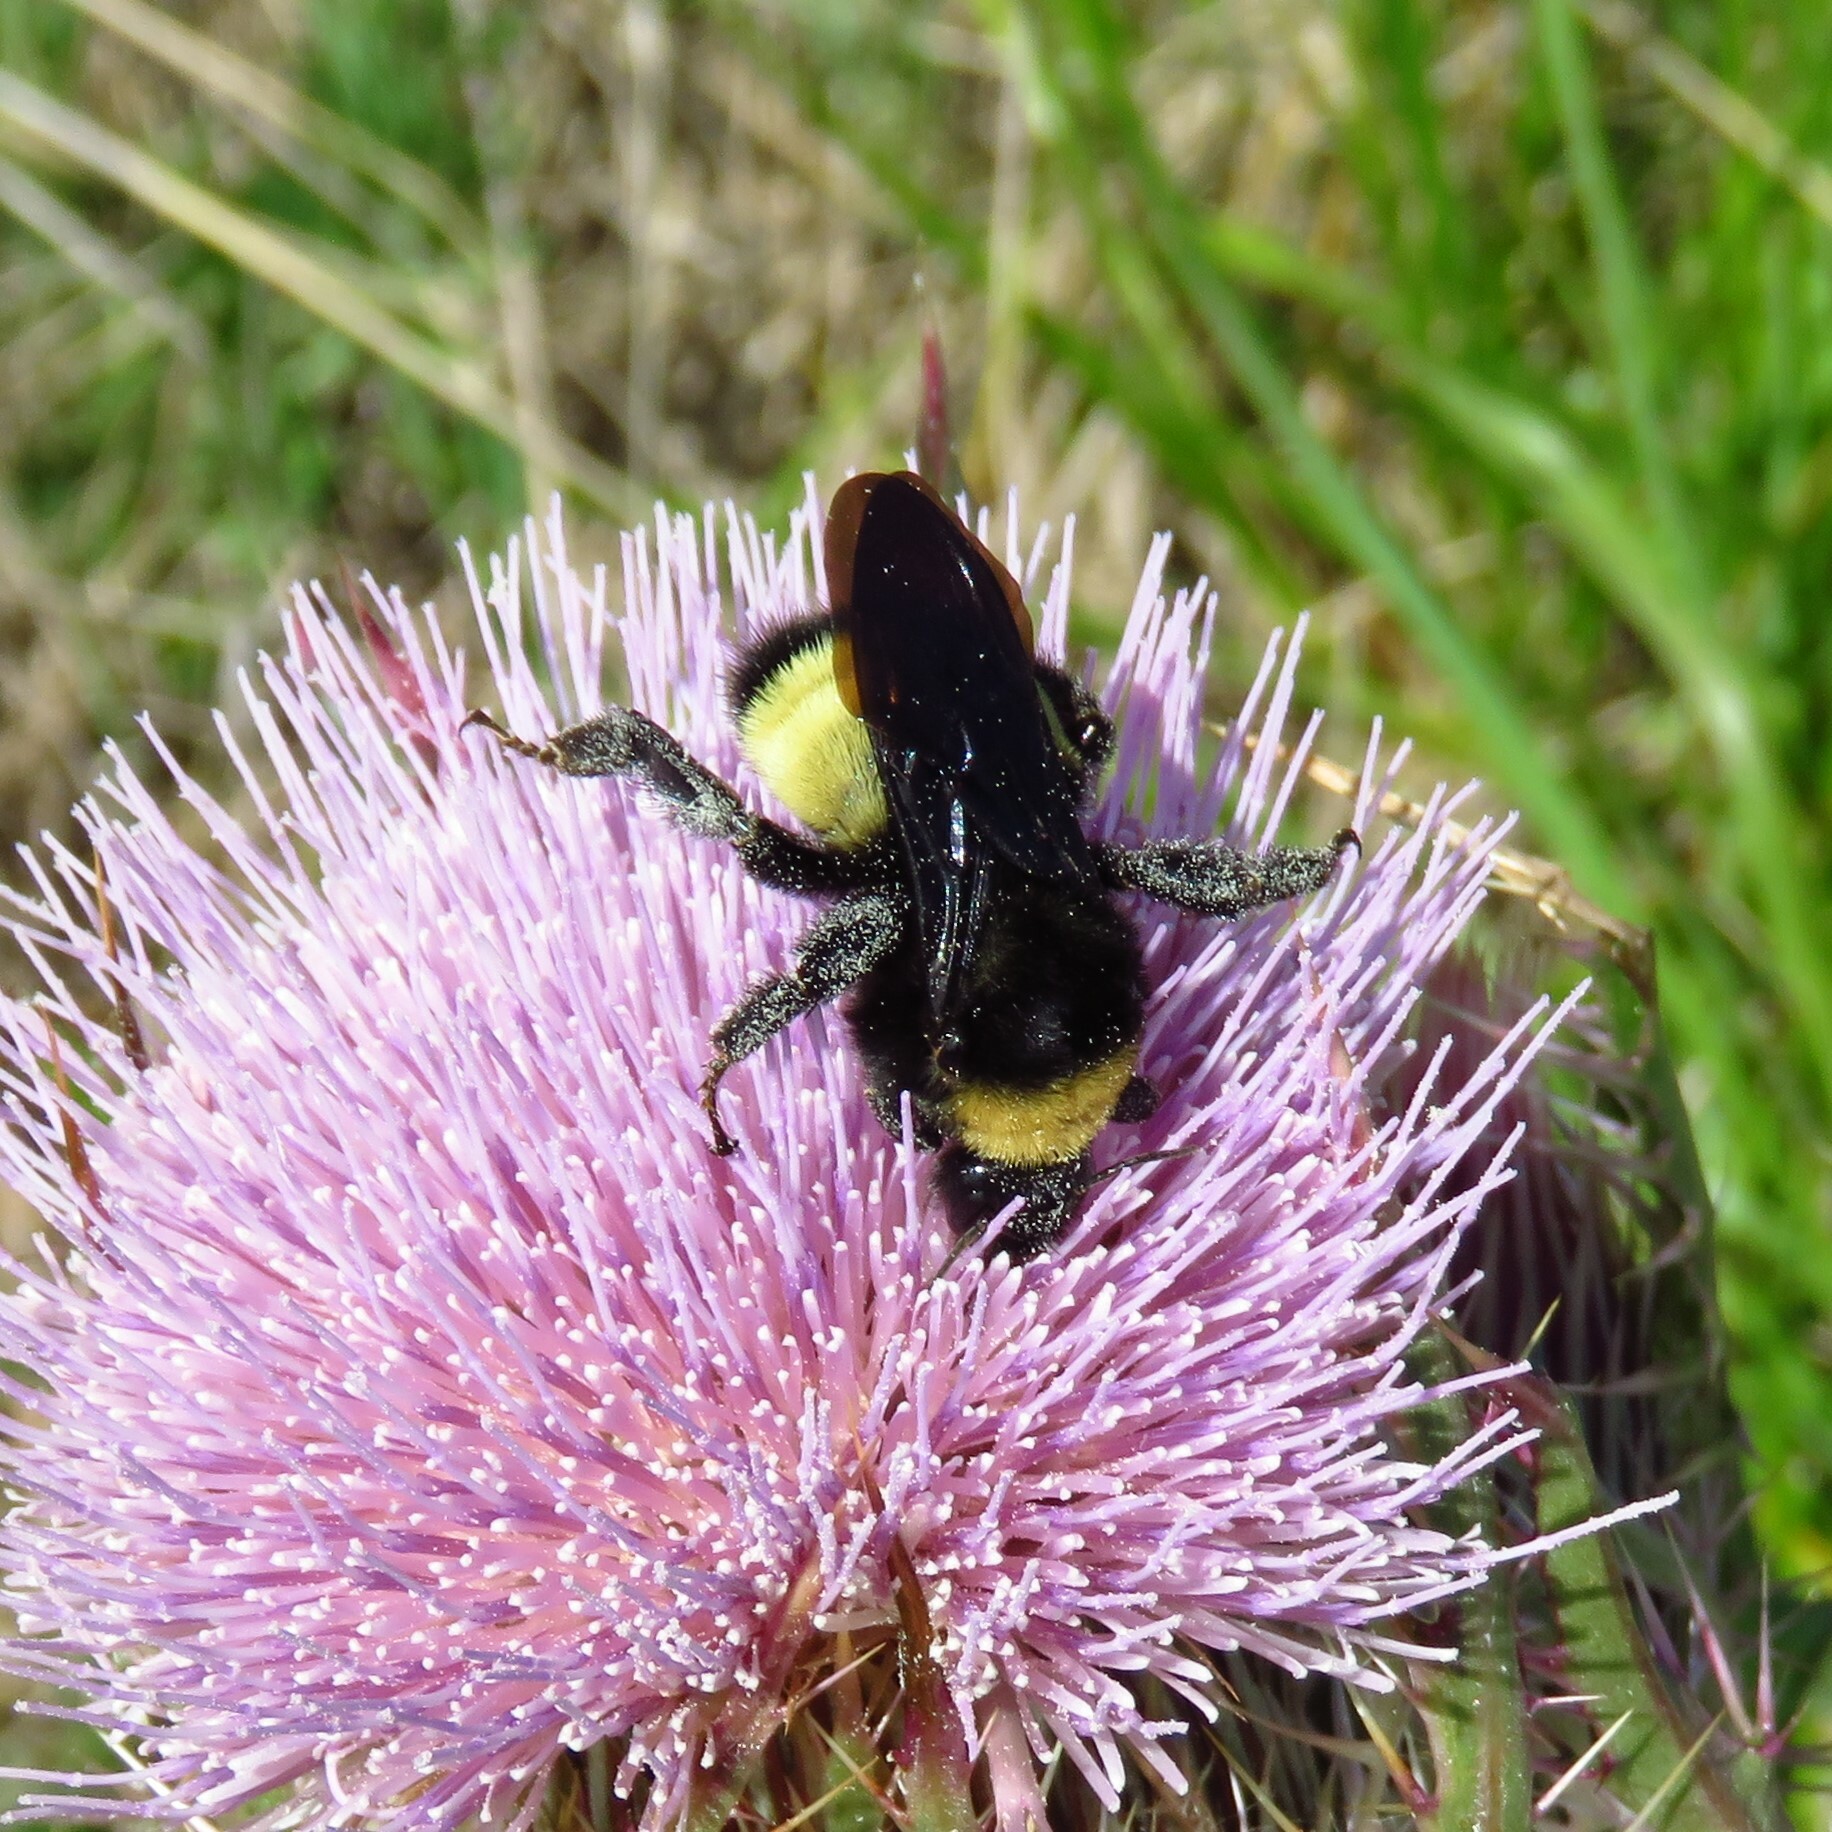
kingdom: Animalia
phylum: Arthropoda
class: Insecta
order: Hymenoptera
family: Apidae
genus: Bombus
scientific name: Bombus pensylvanicus
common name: Bumble bee
